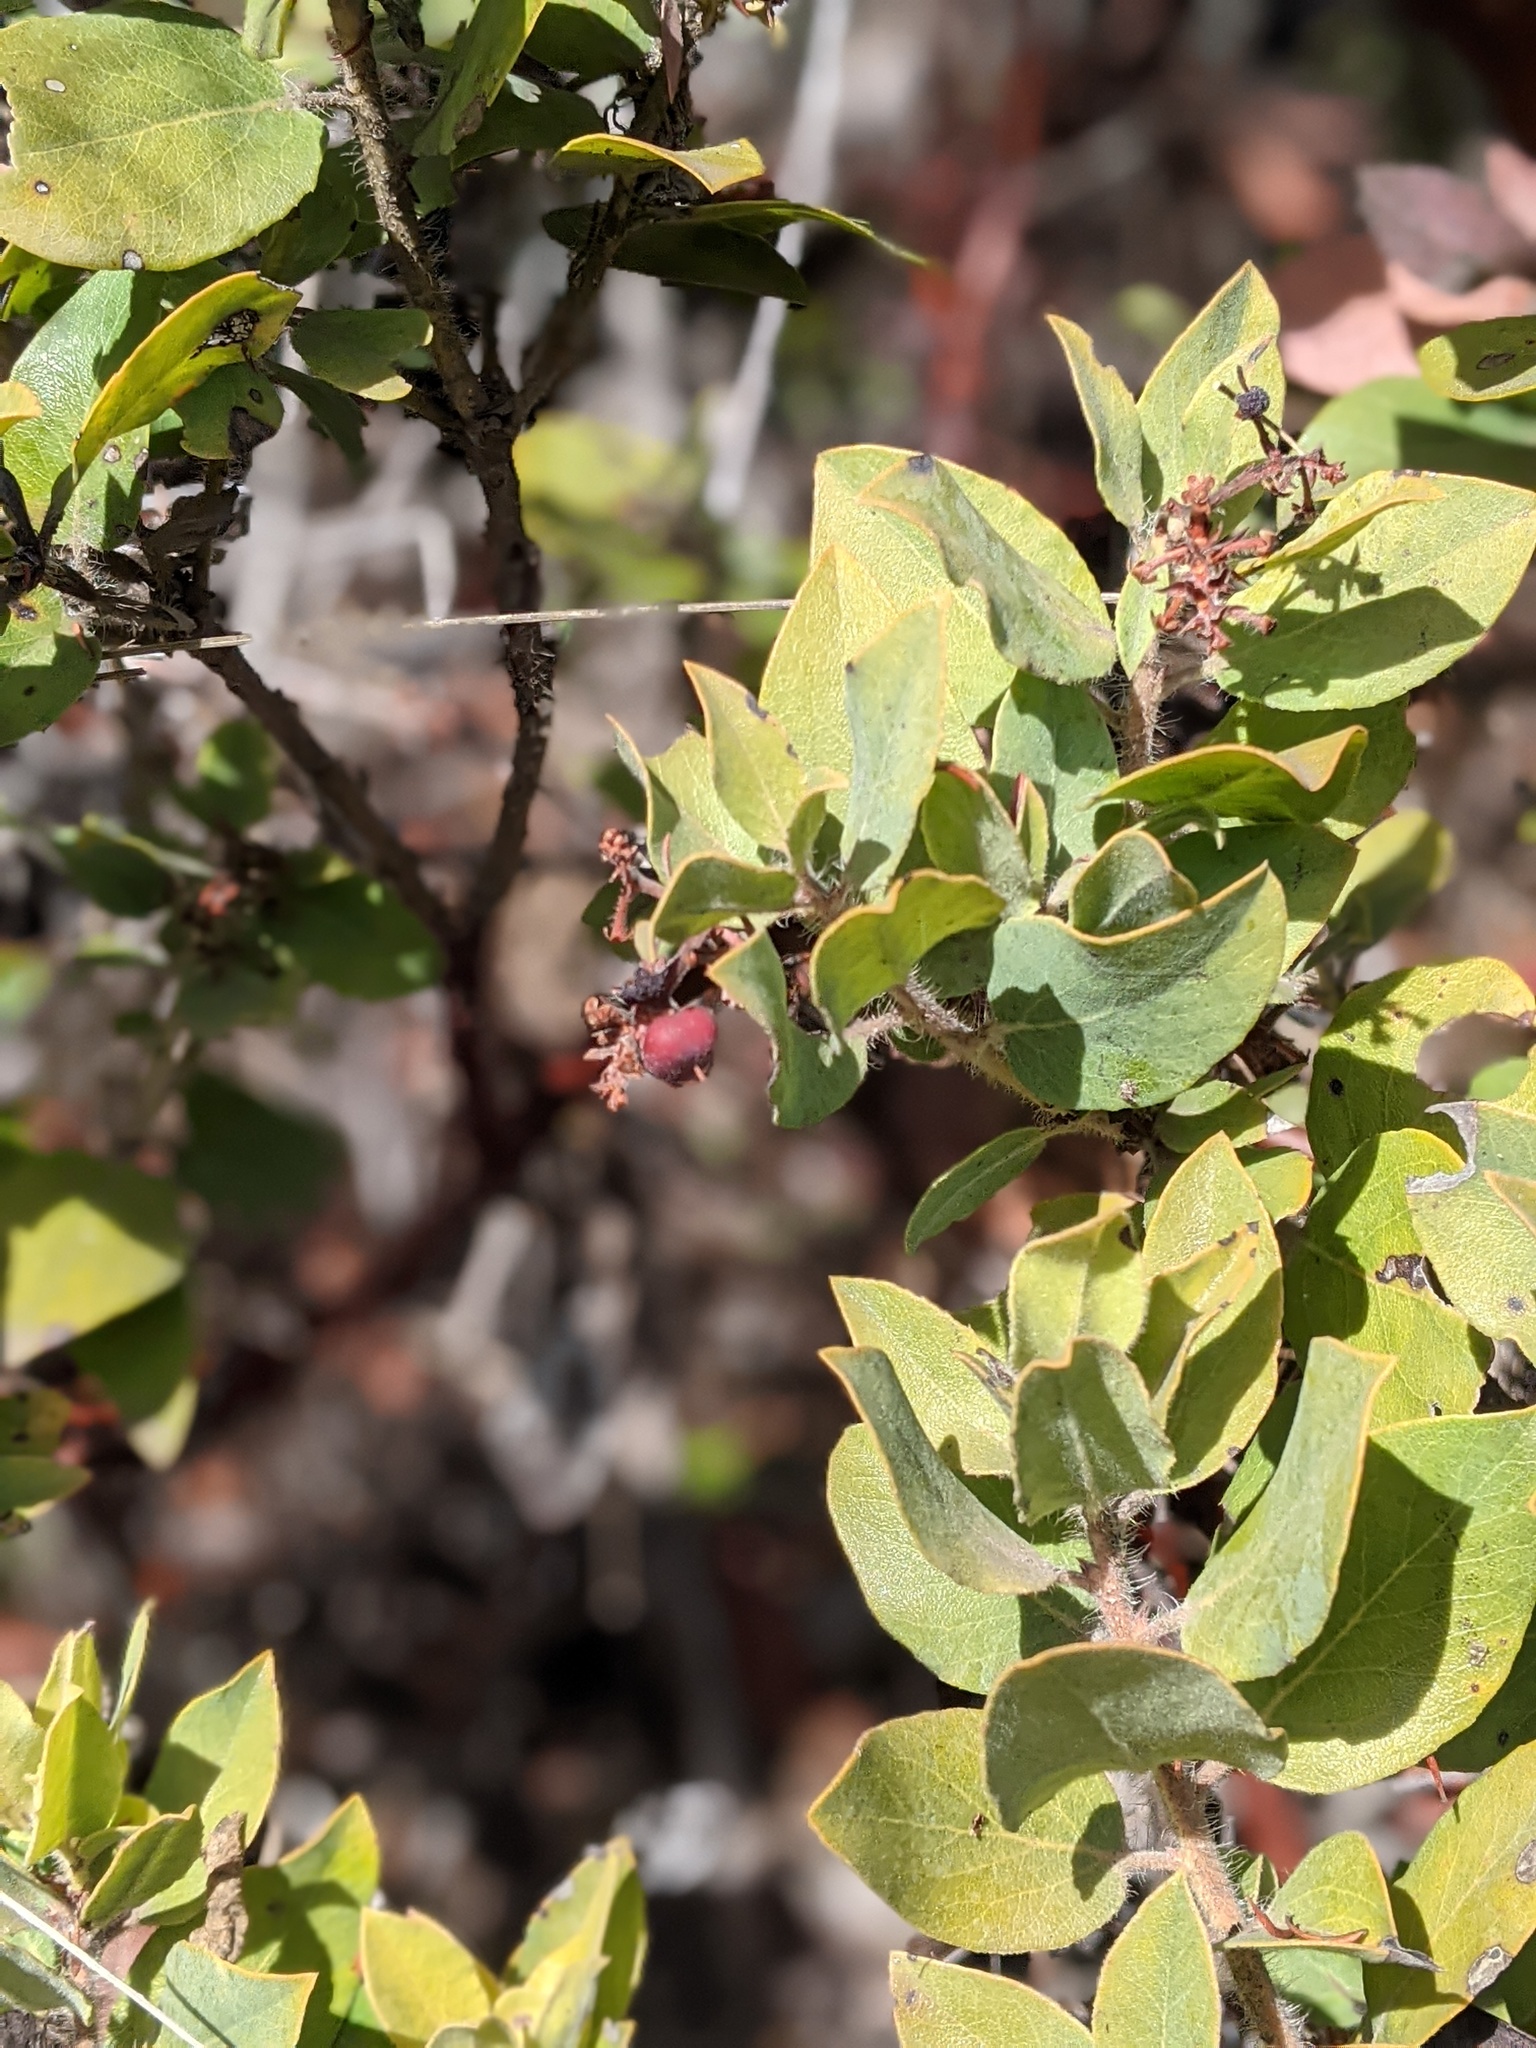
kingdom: Plantae
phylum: Tracheophyta
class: Magnoliopsida
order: Ericales
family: Ericaceae
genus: Arctostaphylos
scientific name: Arctostaphylos crustacea
